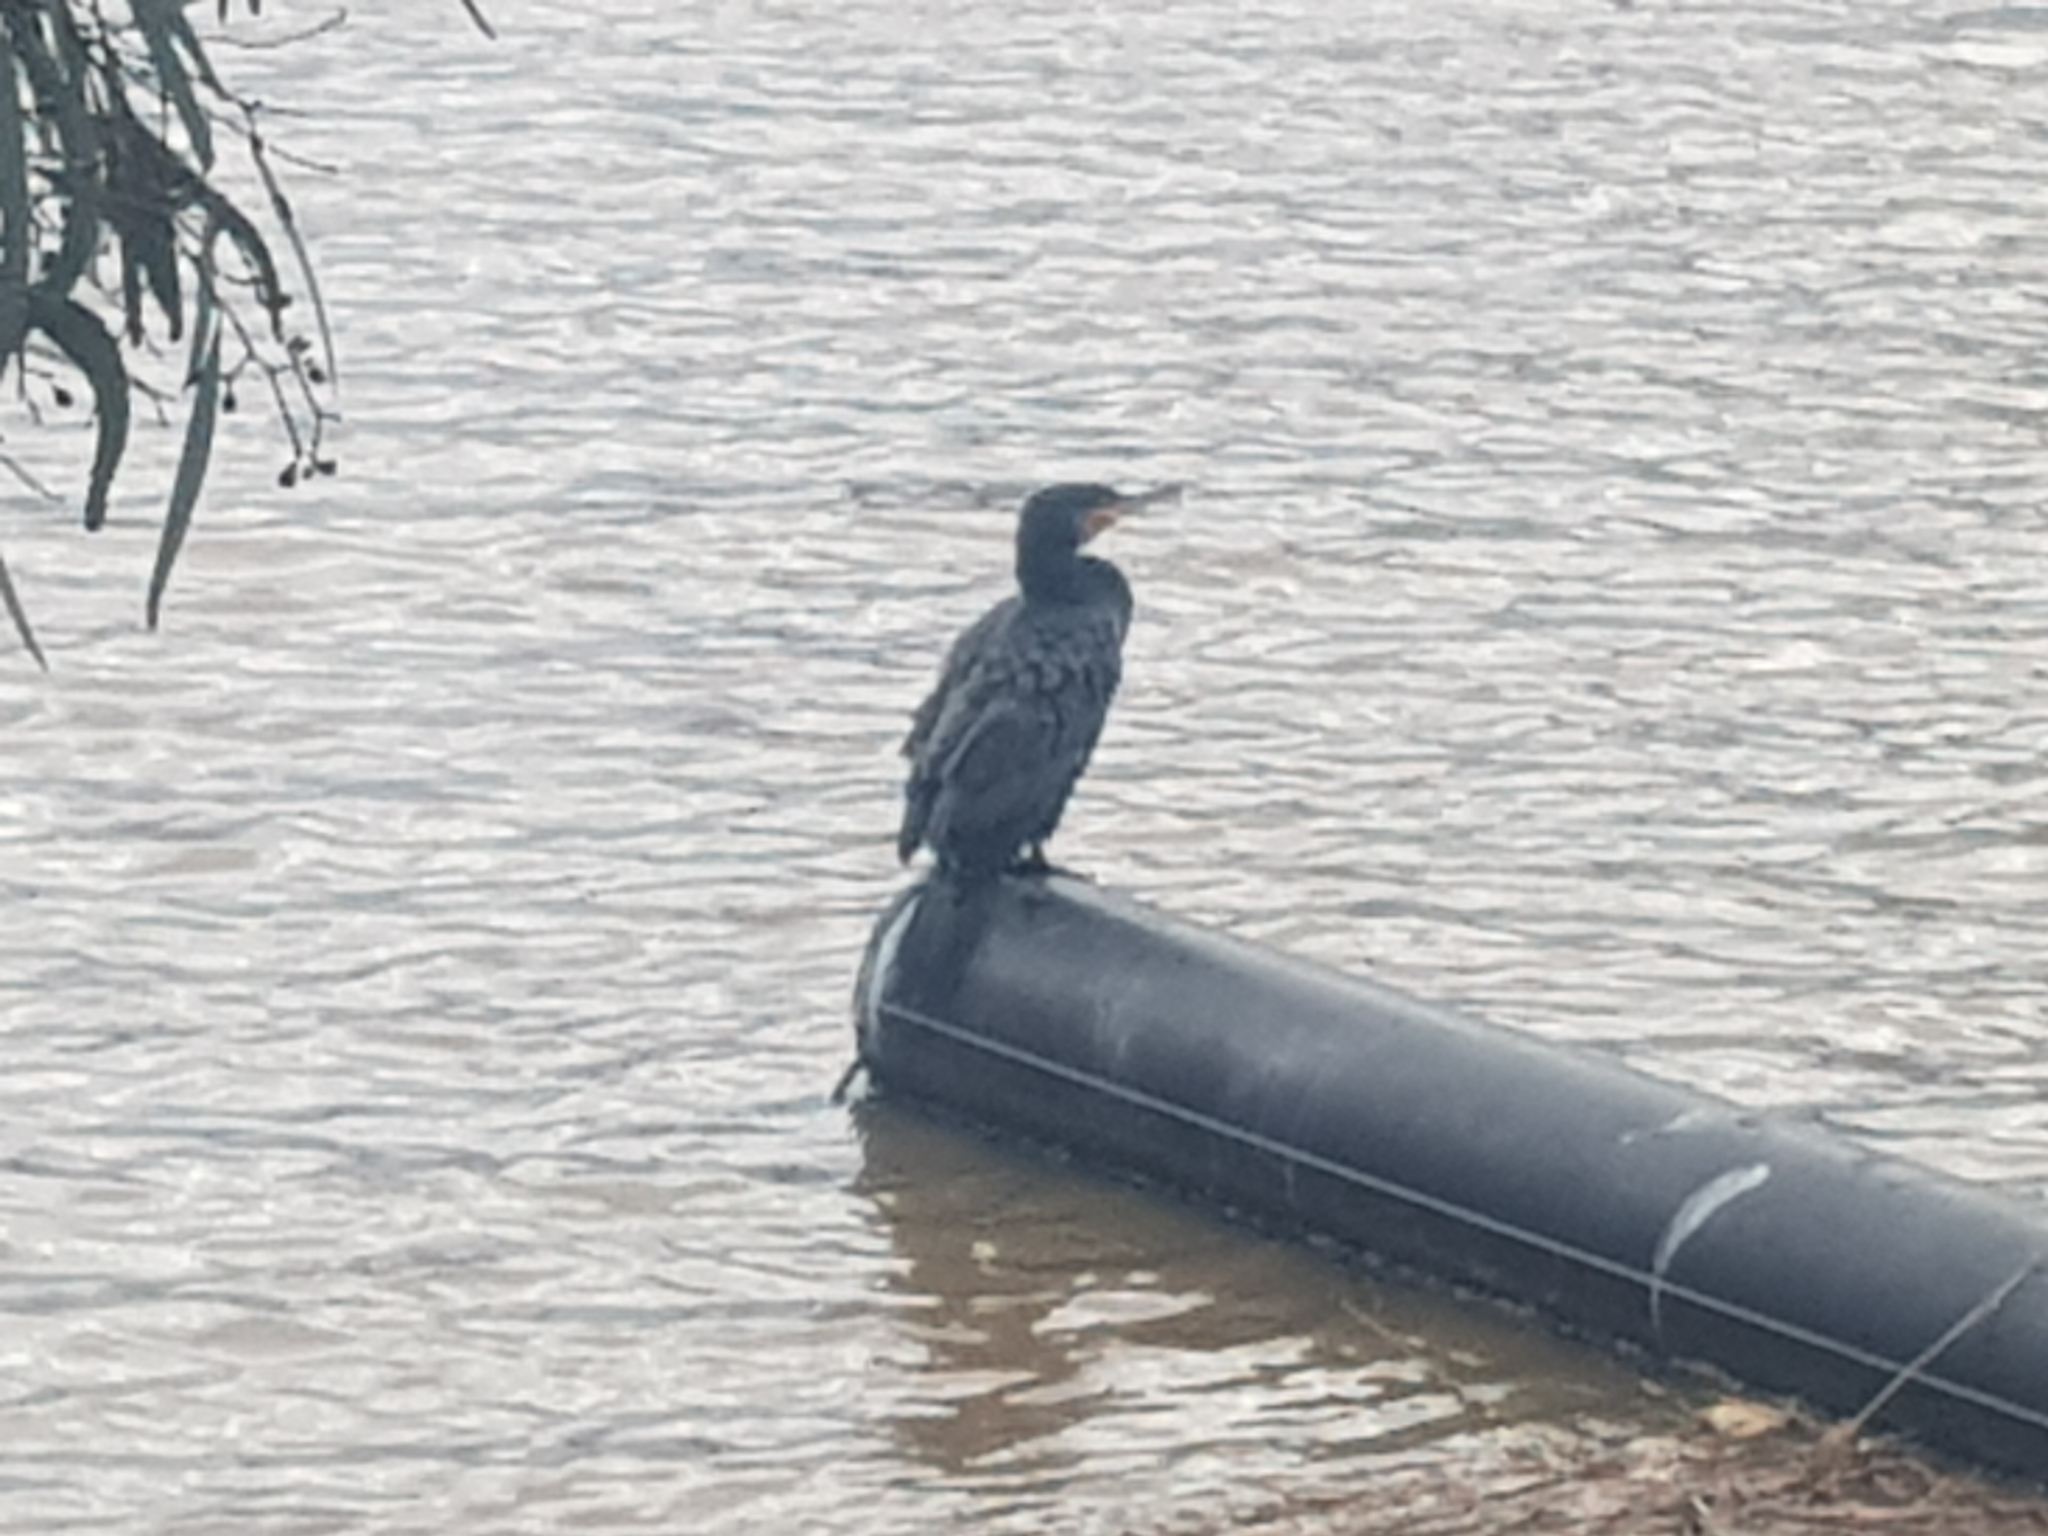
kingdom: Animalia
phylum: Chordata
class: Aves
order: Suliformes
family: Phalacrocoracidae
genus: Phalacrocorax
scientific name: Phalacrocorax carbo
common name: Great cormorant
